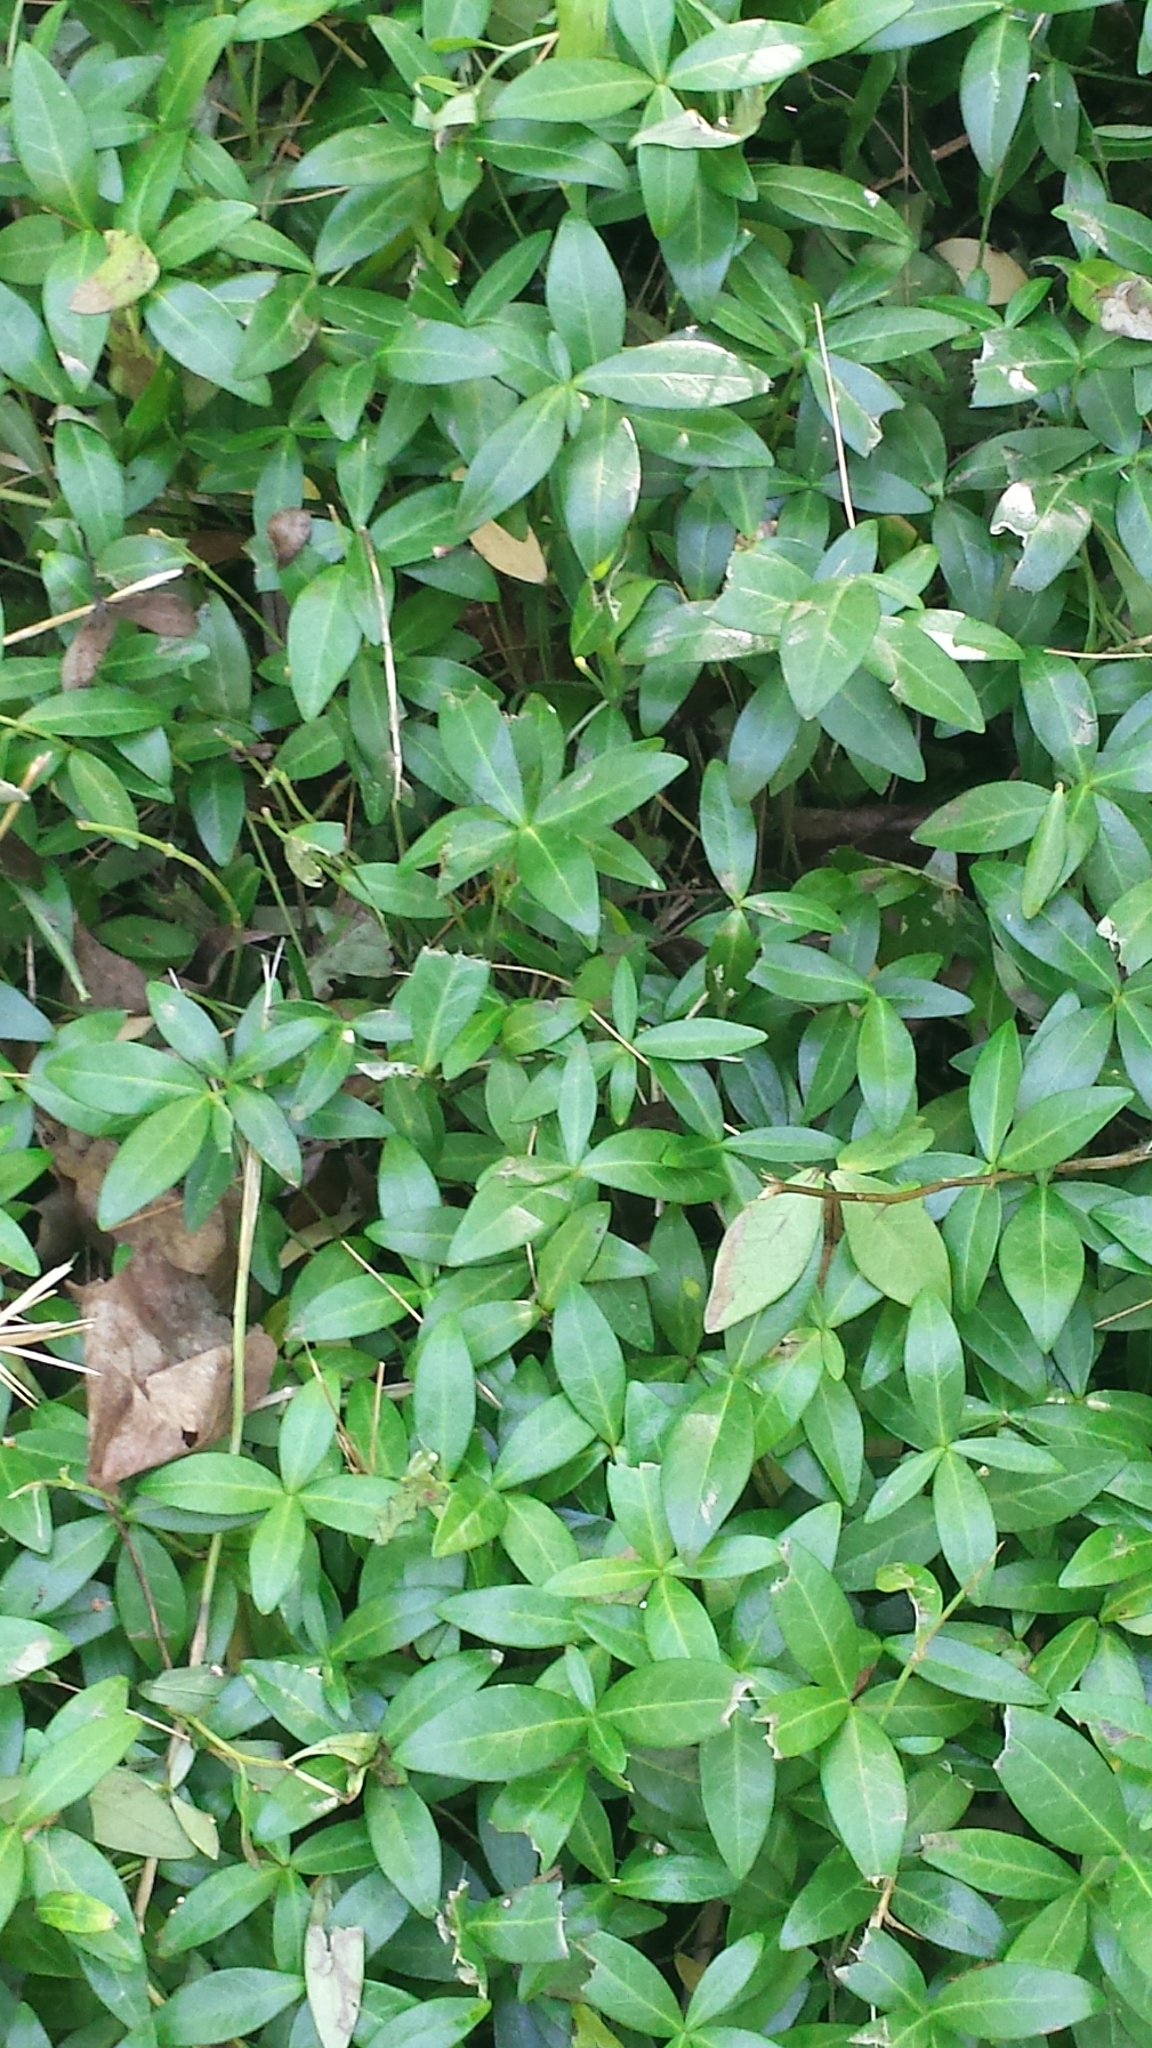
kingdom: Plantae
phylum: Tracheophyta
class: Magnoliopsida
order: Gentianales
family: Apocynaceae
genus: Vinca
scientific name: Vinca minor
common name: Lesser periwinkle
